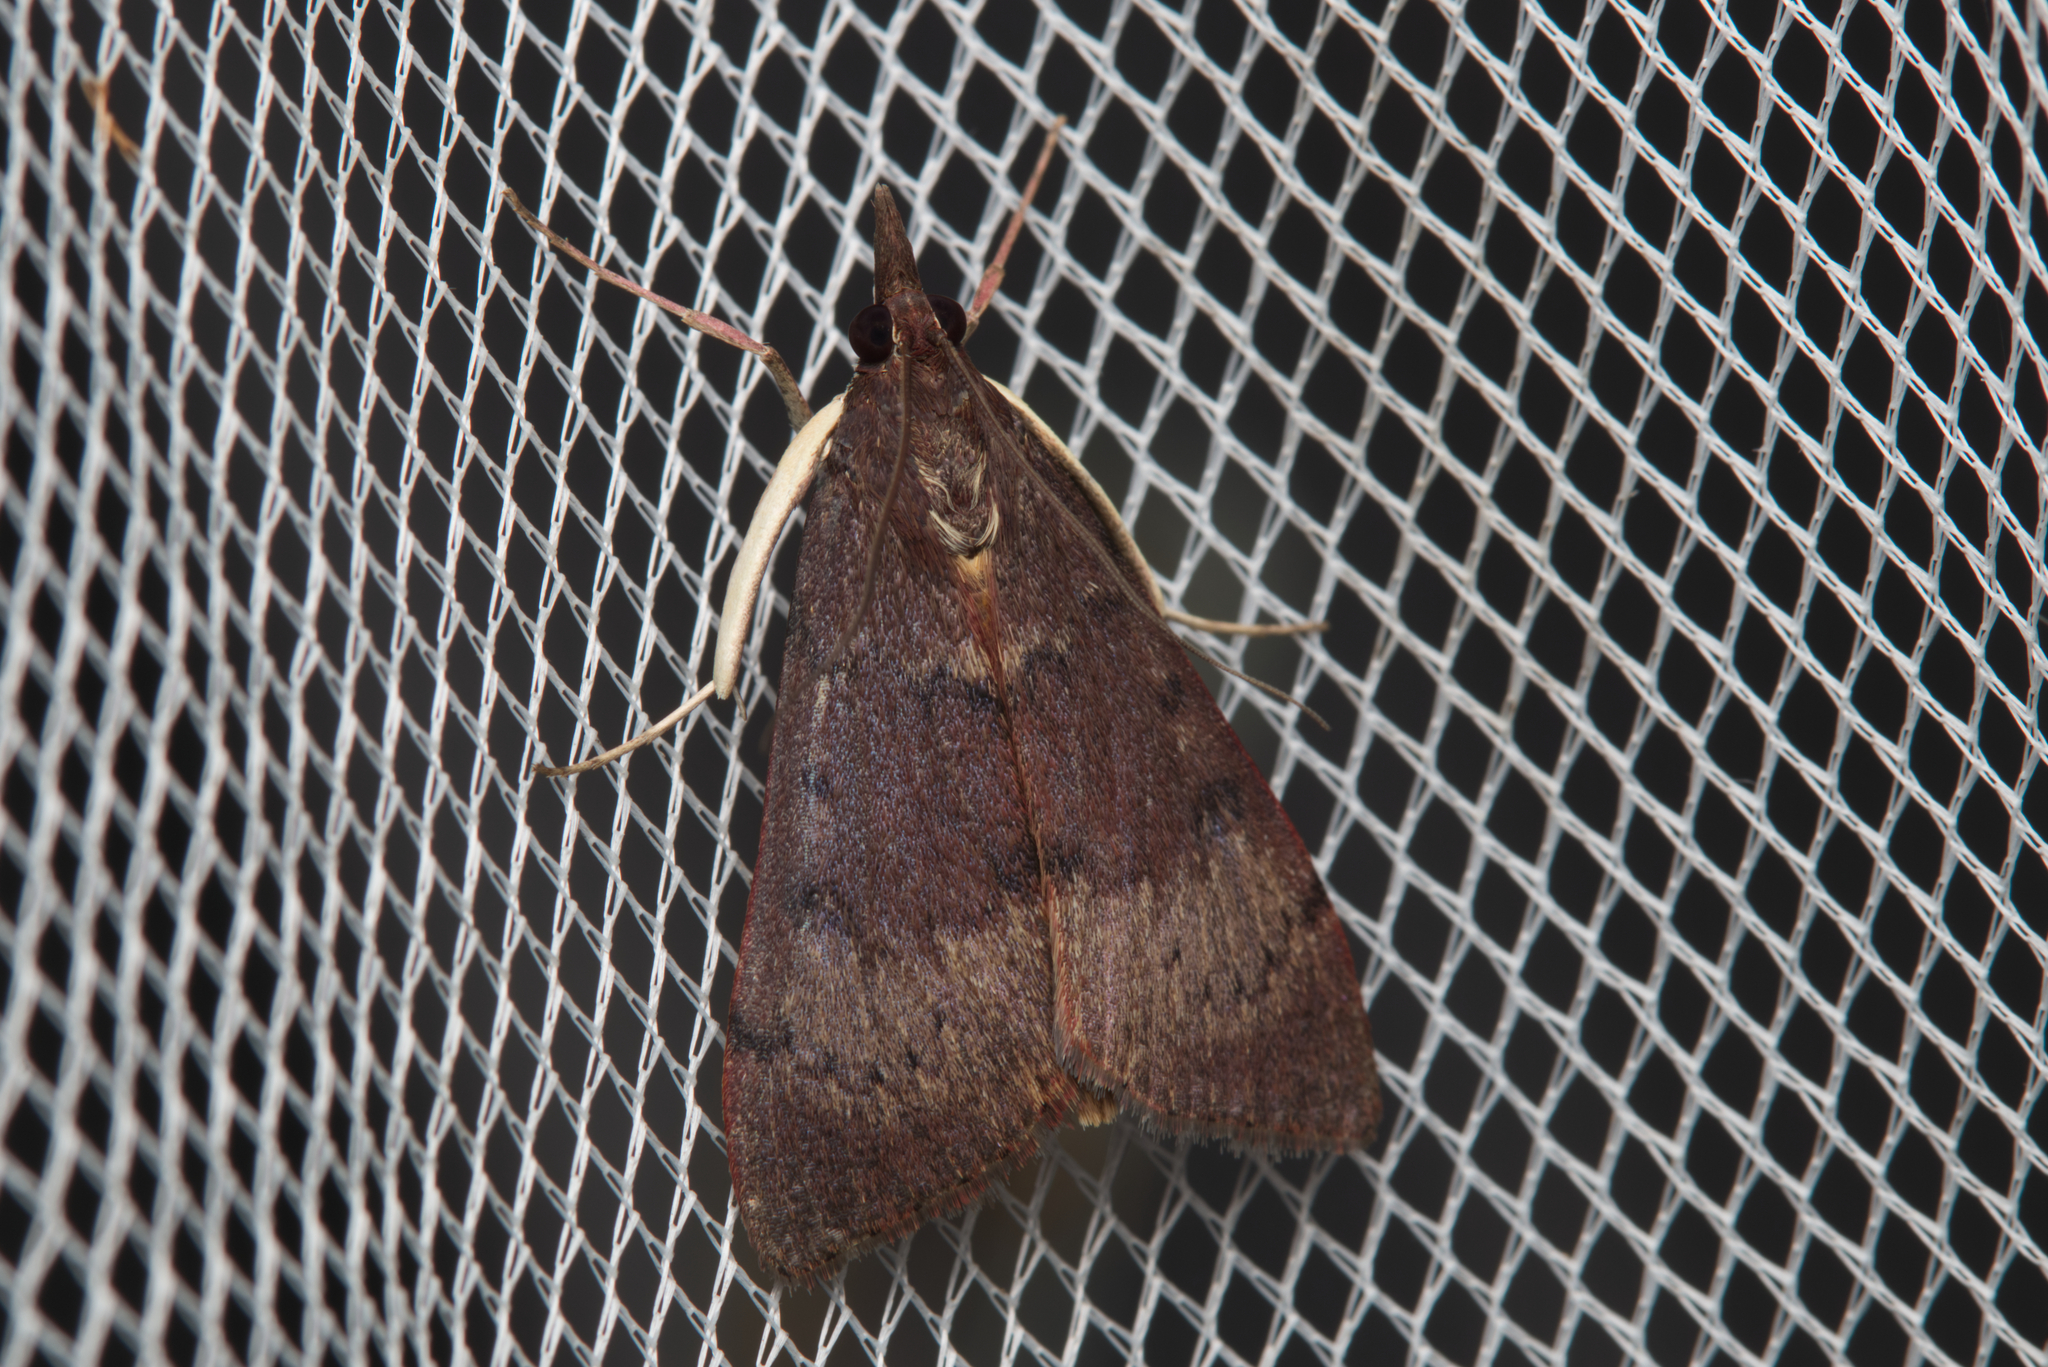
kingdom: Animalia
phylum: Arthropoda
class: Insecta
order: Lepidoptera
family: Crambidae
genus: Uresiphita
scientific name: Uresiphita ornithopteralis
